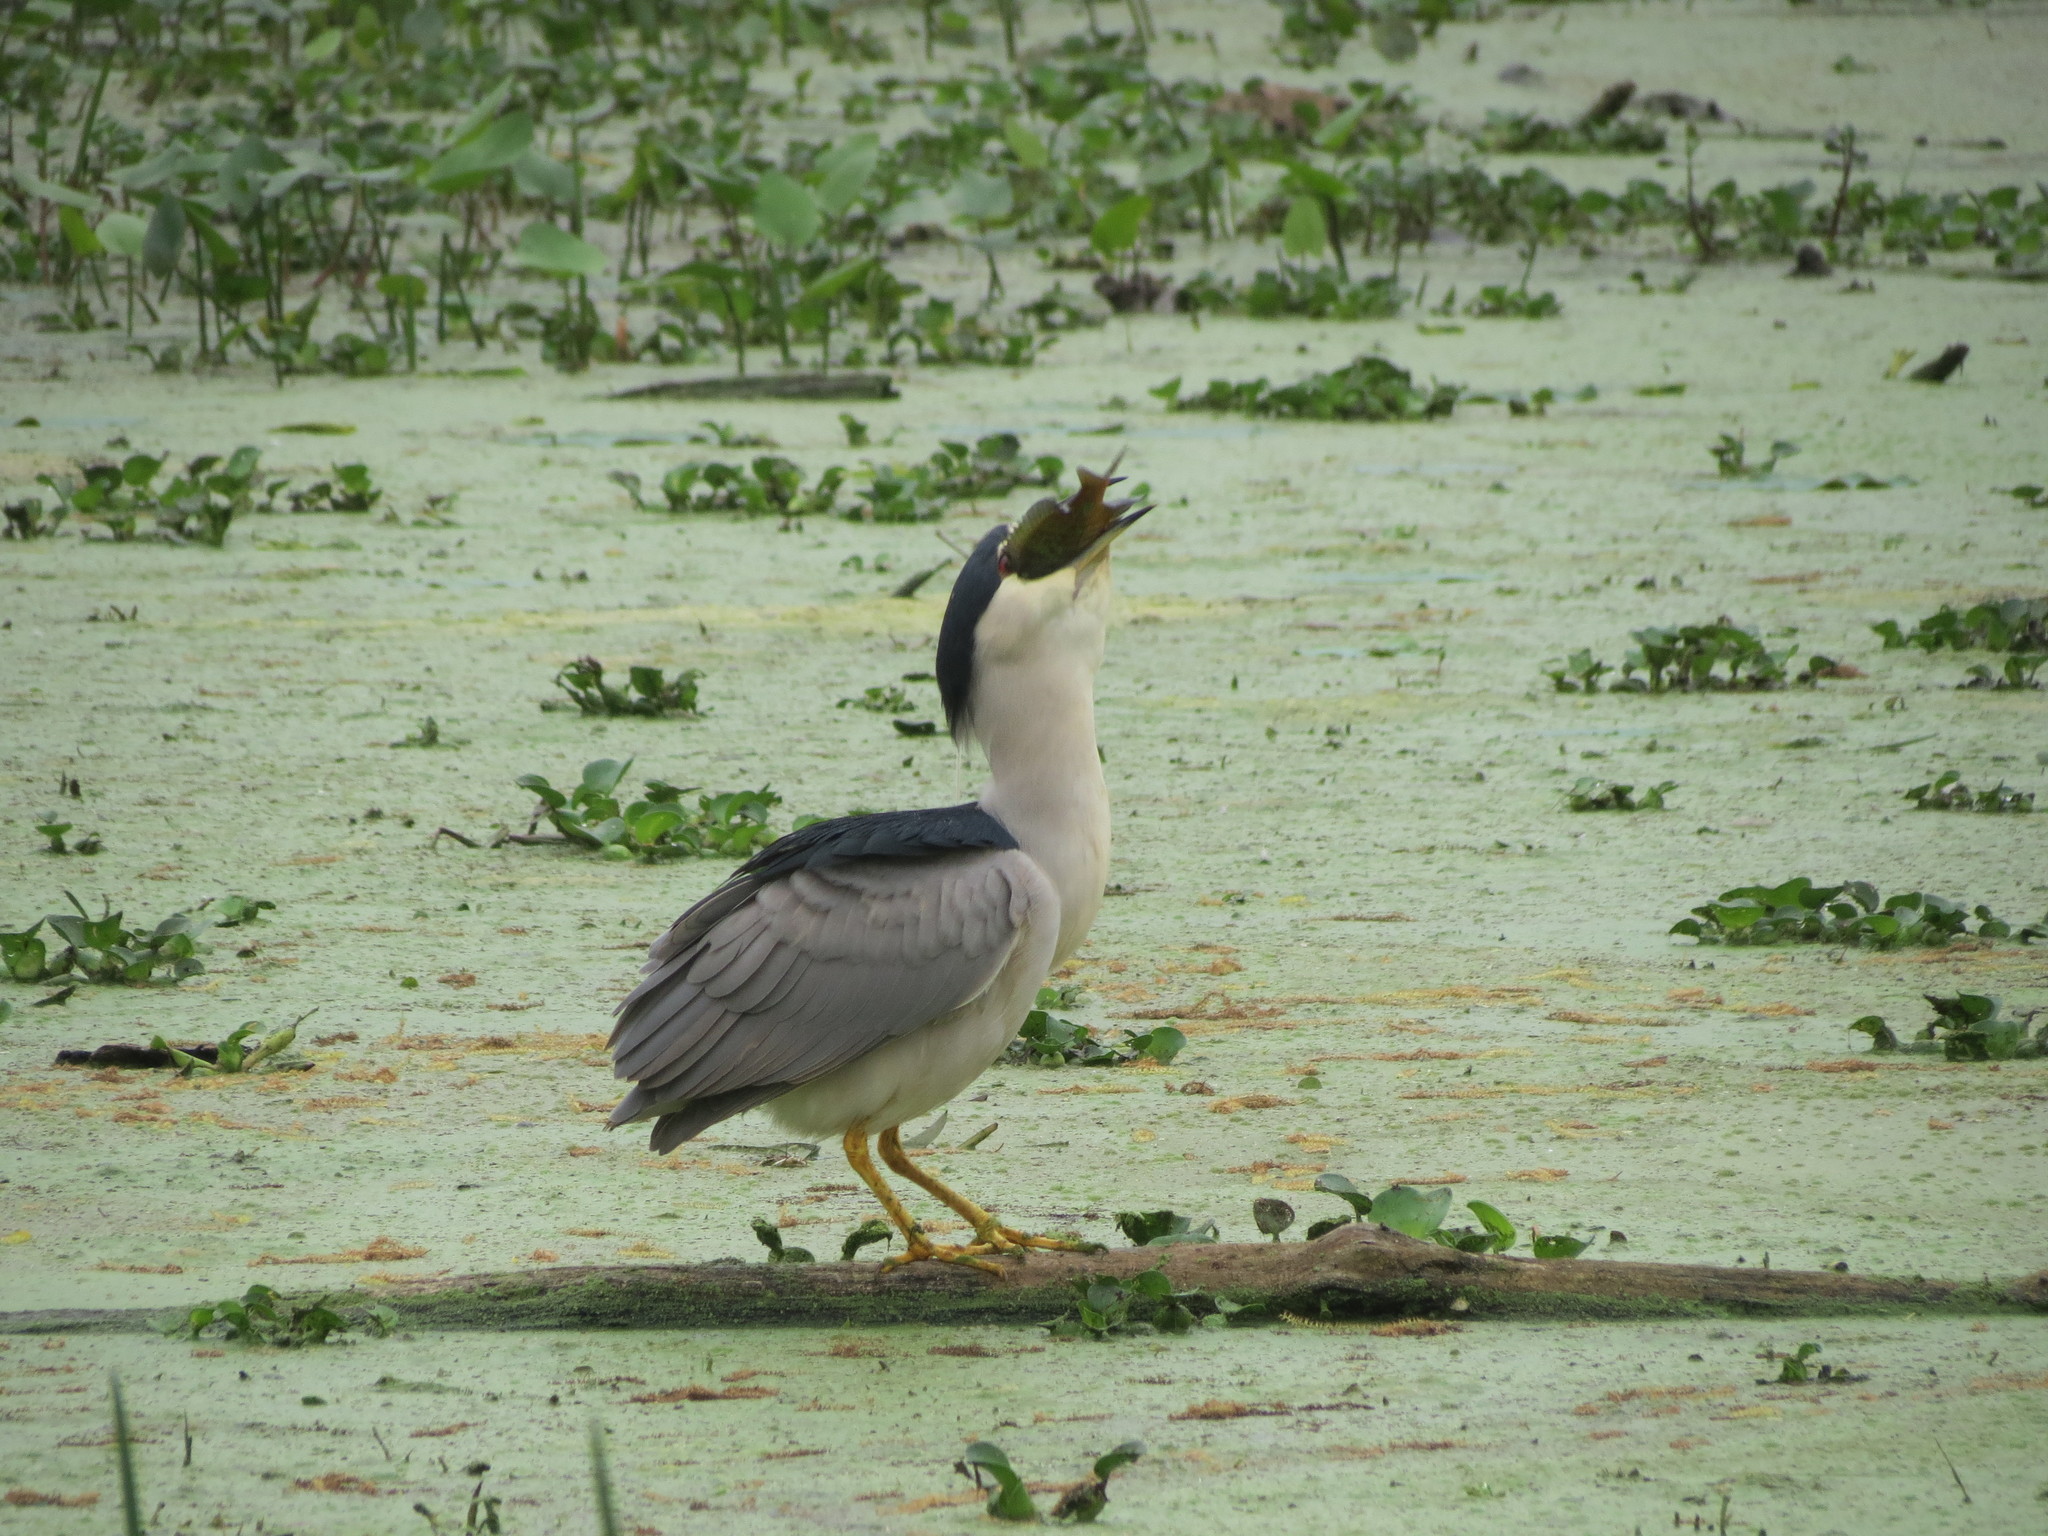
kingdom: Animalia
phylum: Chordata
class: Aves
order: Pelecaniformes
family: Ardeidae
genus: Nycticorax
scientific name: Nycticorax nycticorax
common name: Black-crowned night heron
